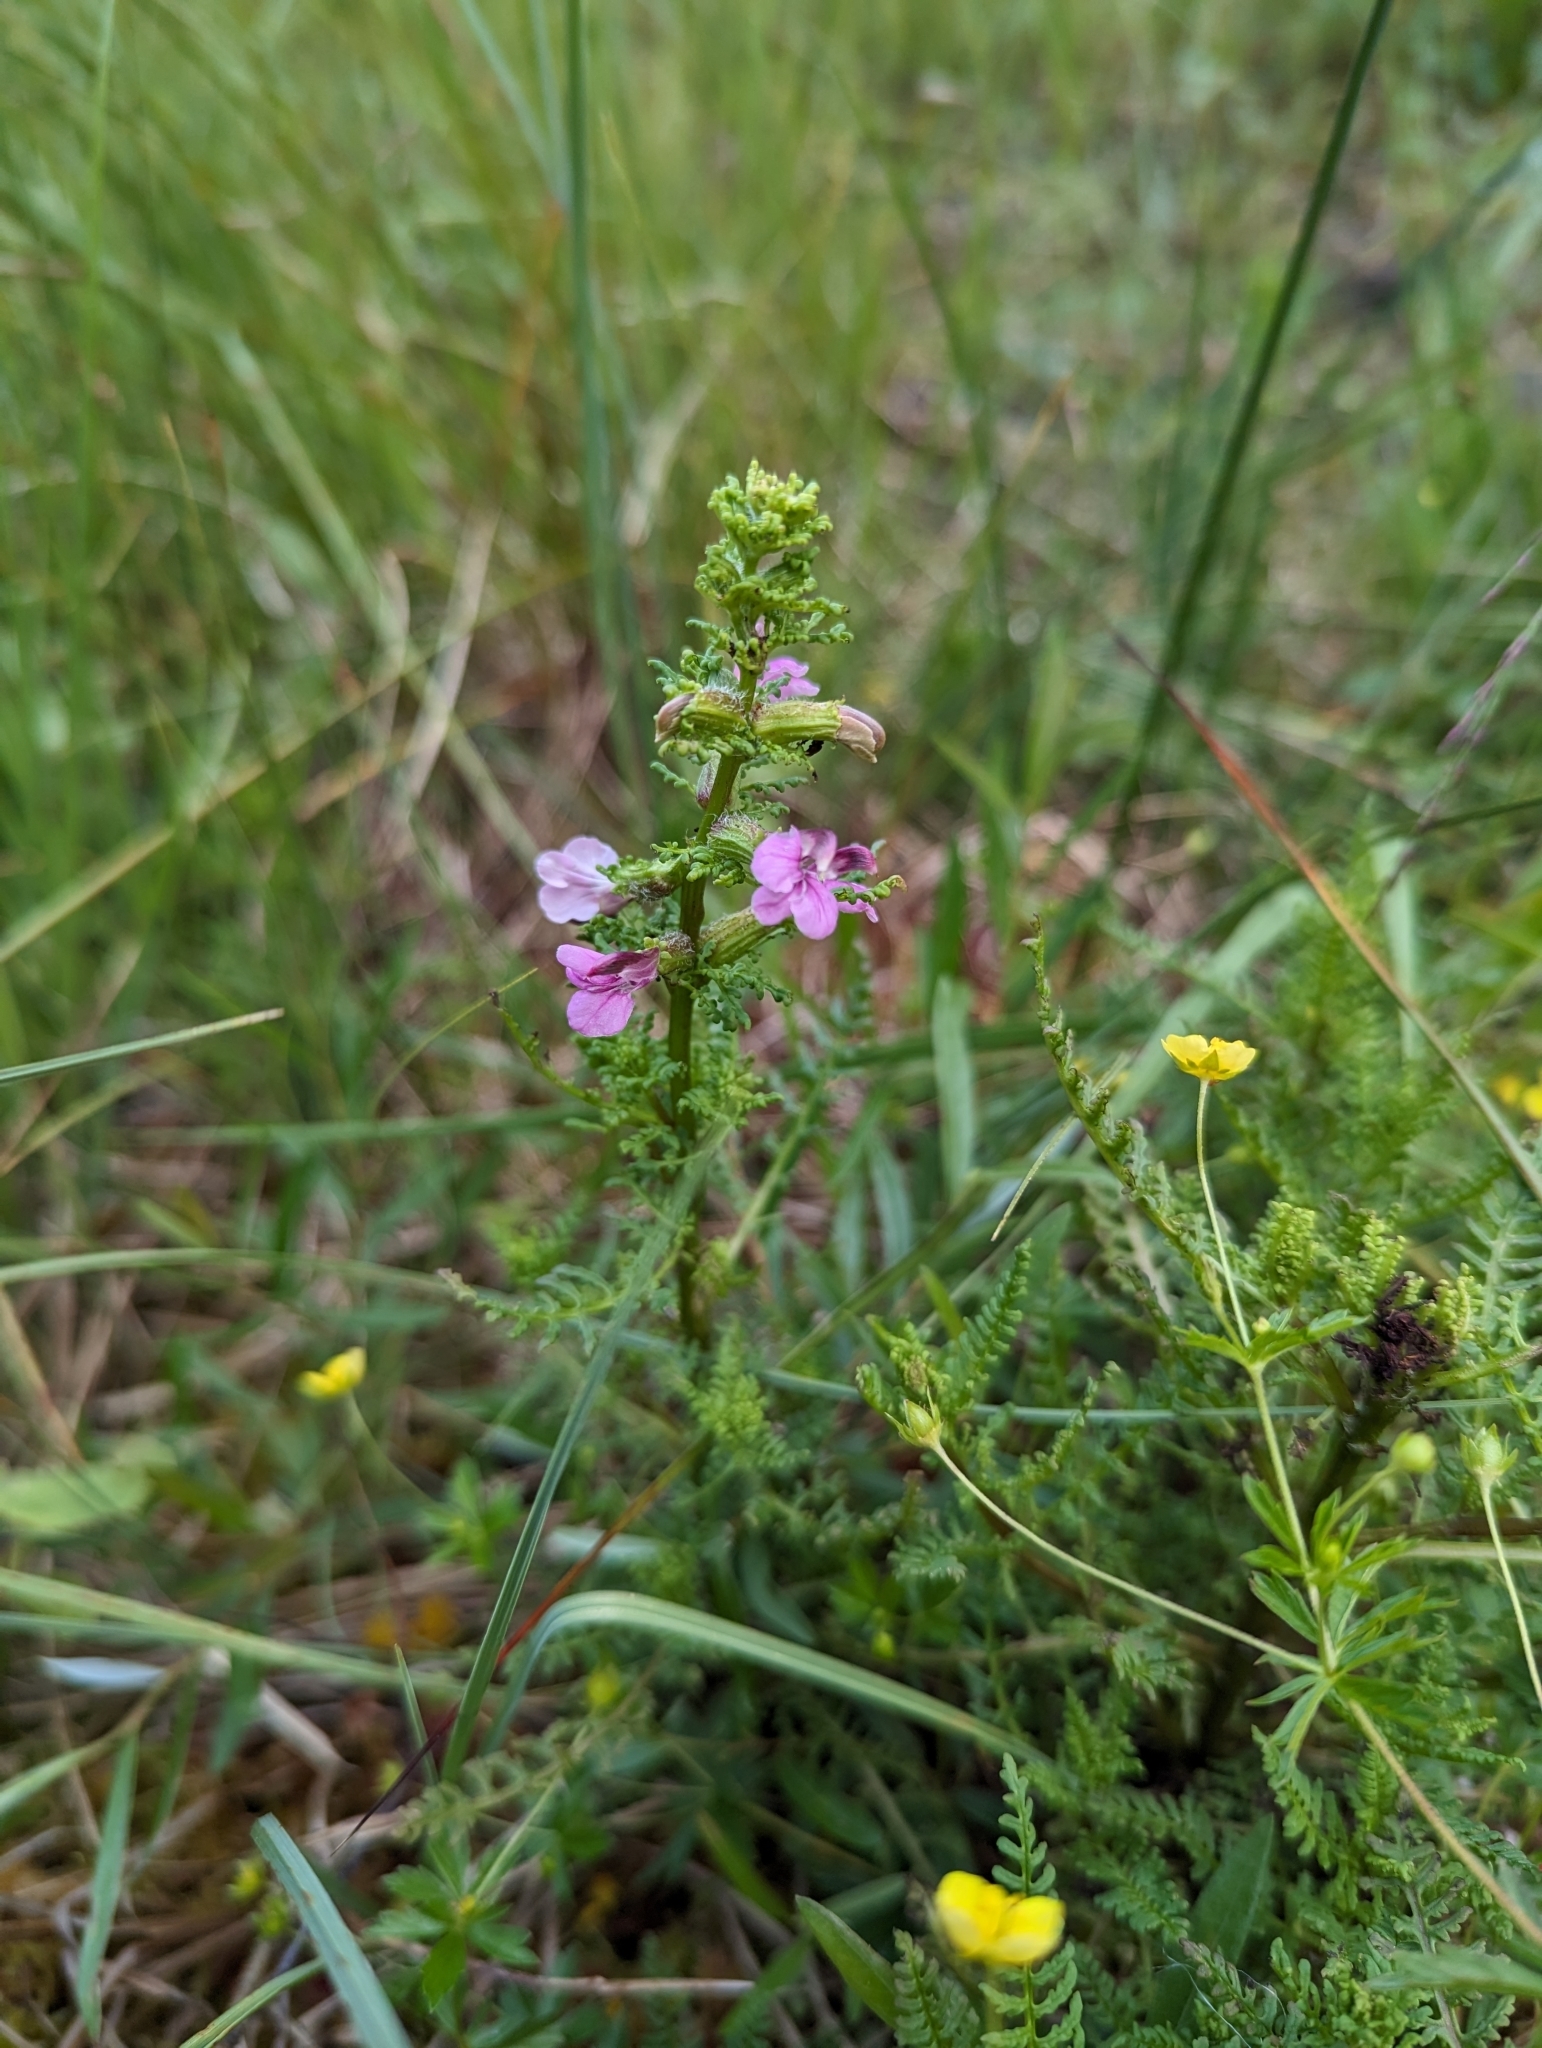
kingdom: Plantae
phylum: Tracheophyta
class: Magnoliopsida
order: Lamiales
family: Orobanchaceae
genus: Pedicularis
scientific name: Pedicularis palustris
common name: Marsh lousewort
